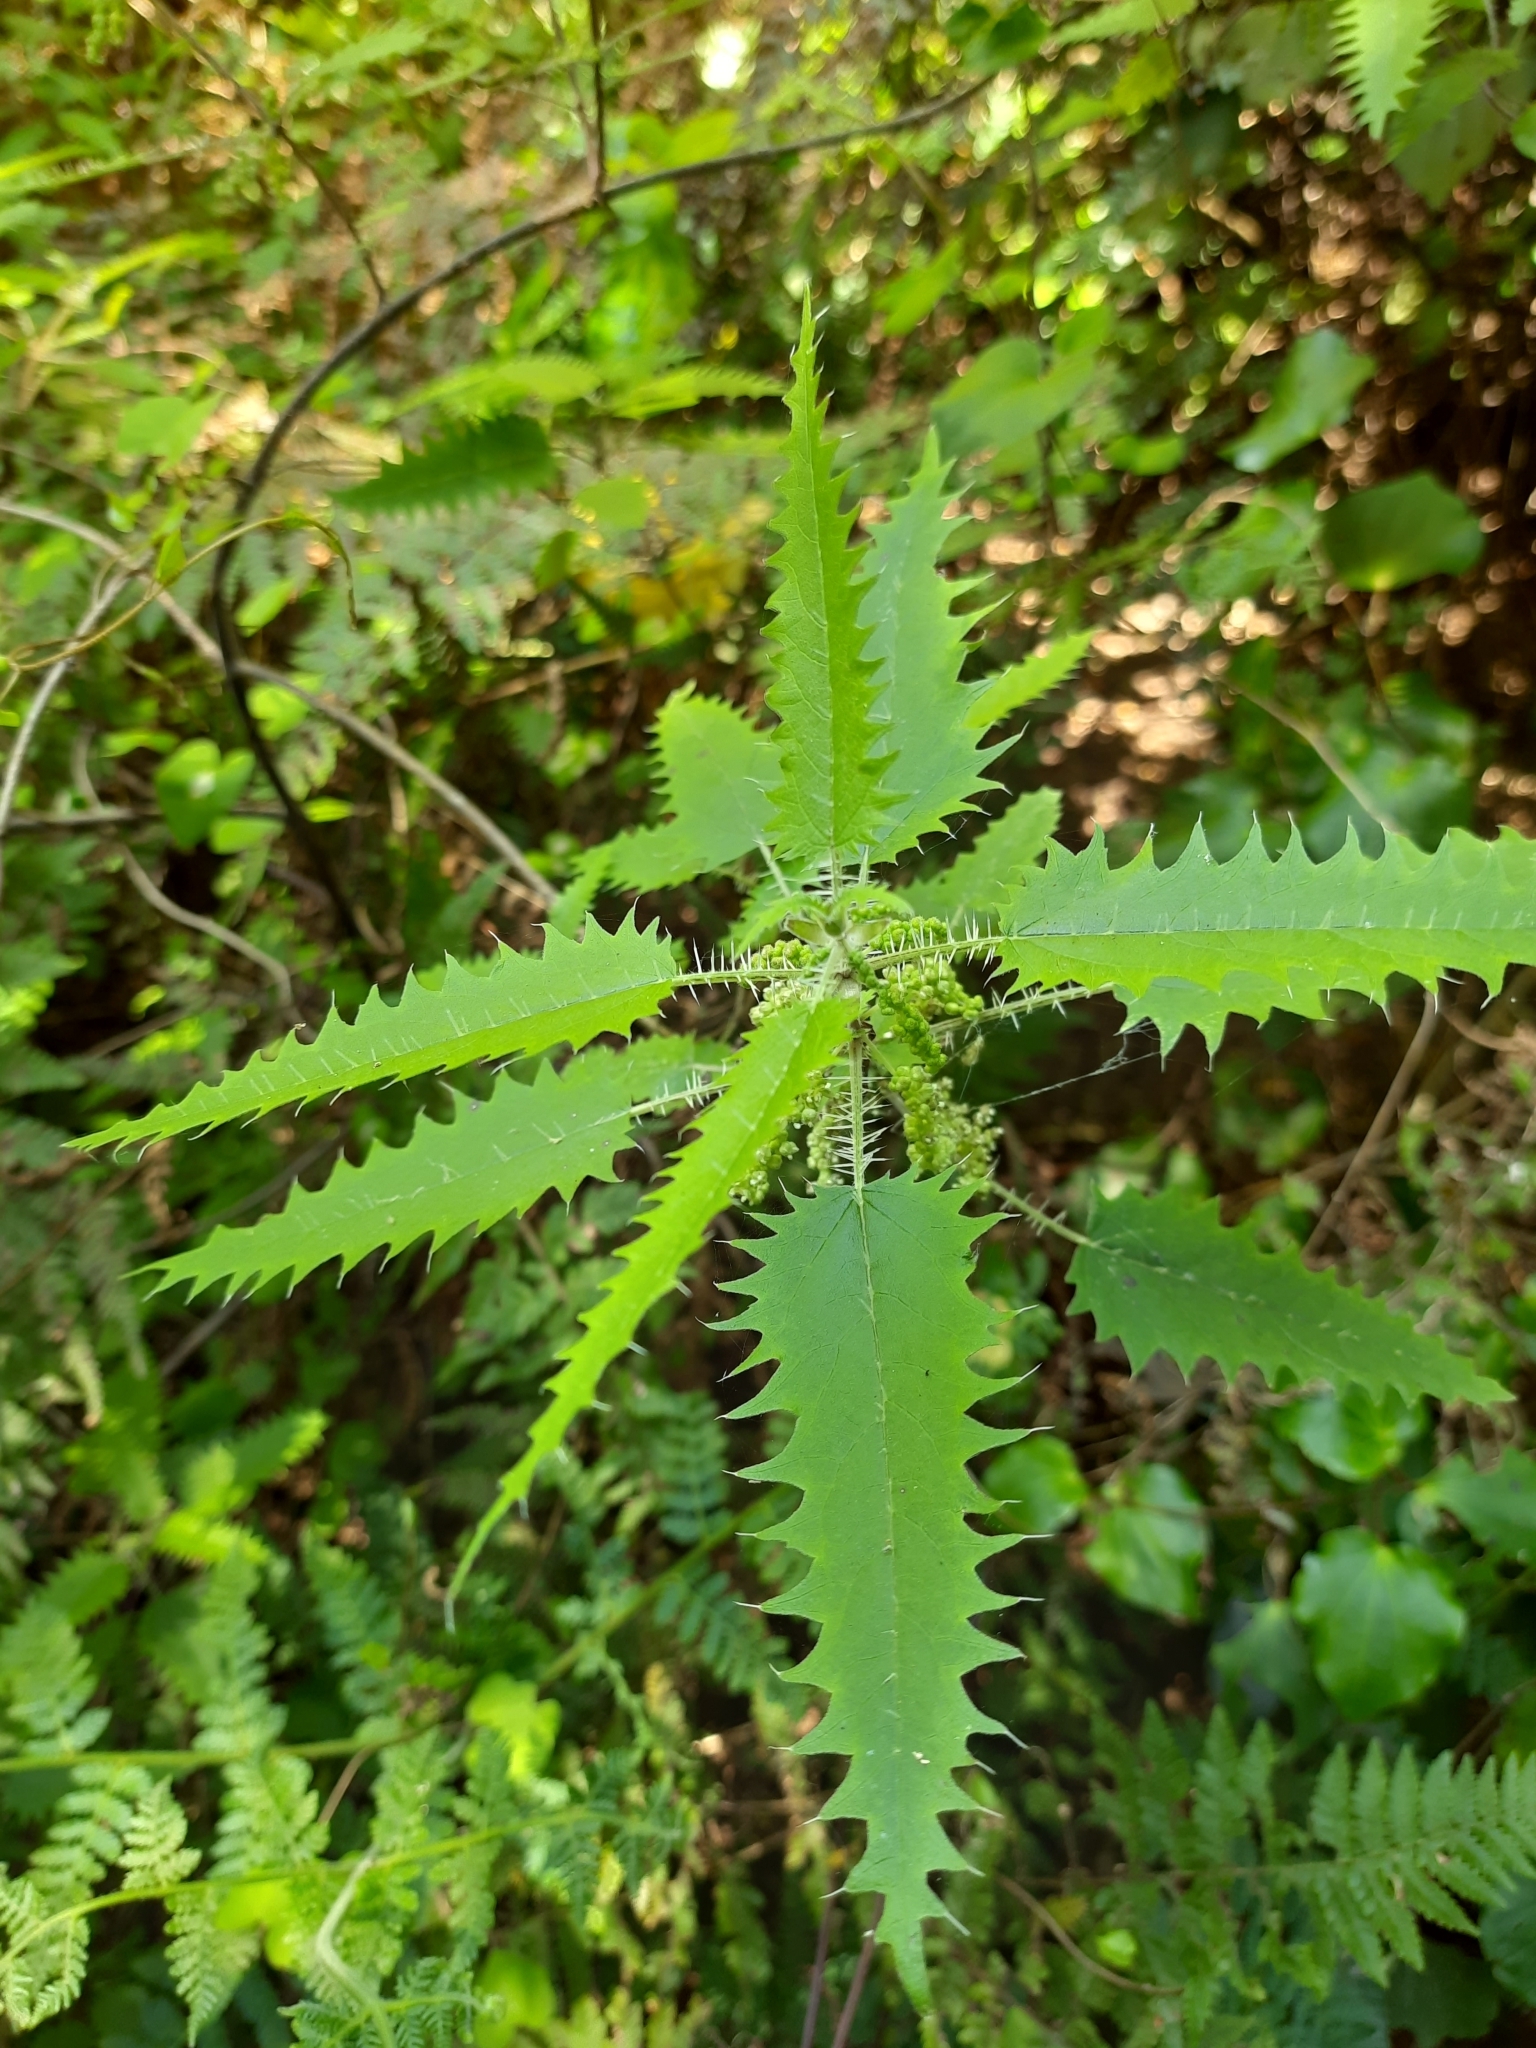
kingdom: Plantae
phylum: Tracheophyta
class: Magnoliopsida
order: Rosales
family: Urticaceae
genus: Urtica
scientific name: Urtica ferox
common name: Tree nettle
